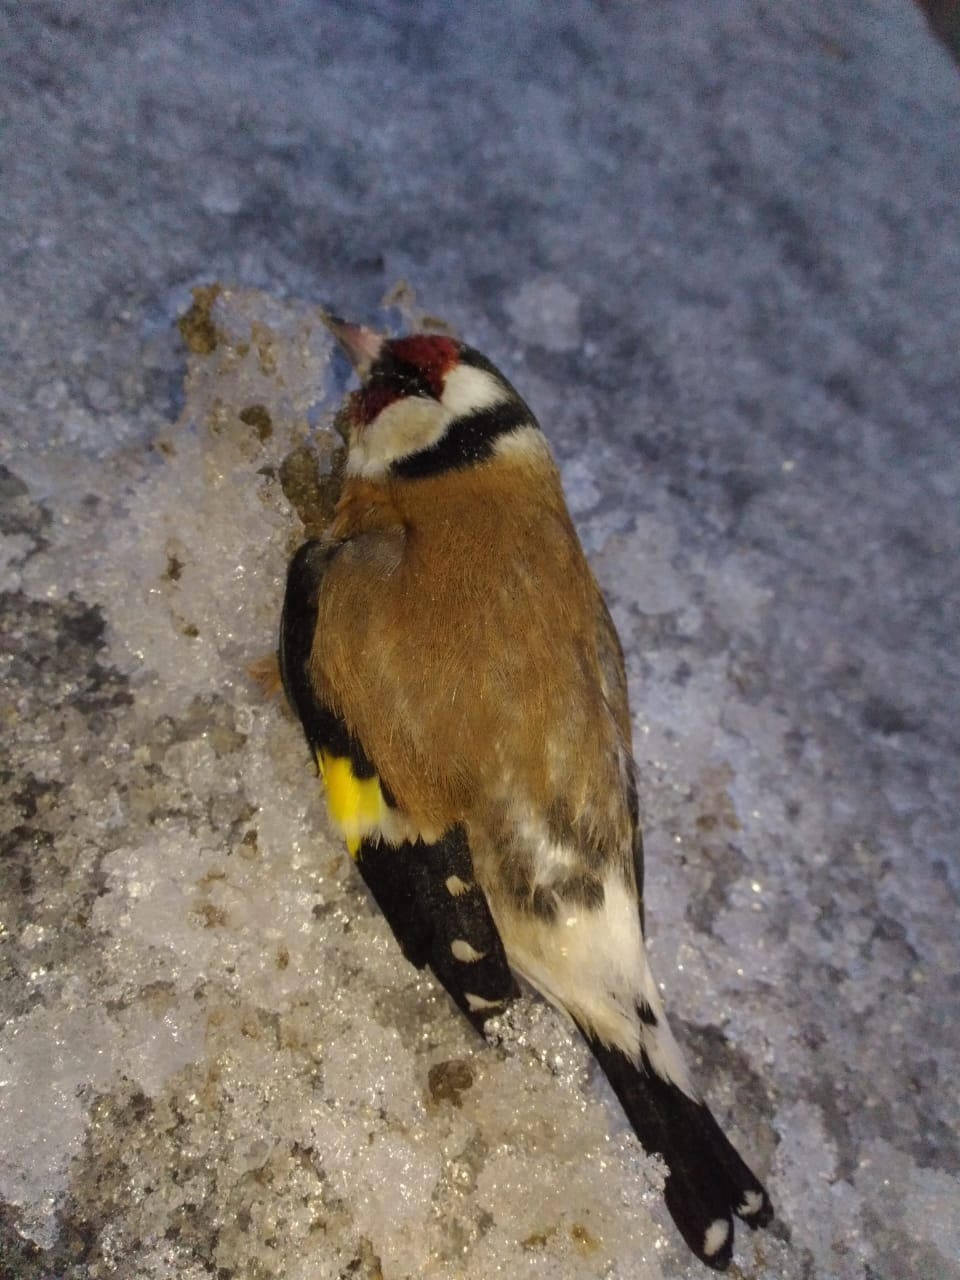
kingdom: Animalia
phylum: Chordata
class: Aves
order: Passeriformes
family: Fringillidae
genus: Carduelis
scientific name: Carduelis carduelis
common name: European goldfinch
